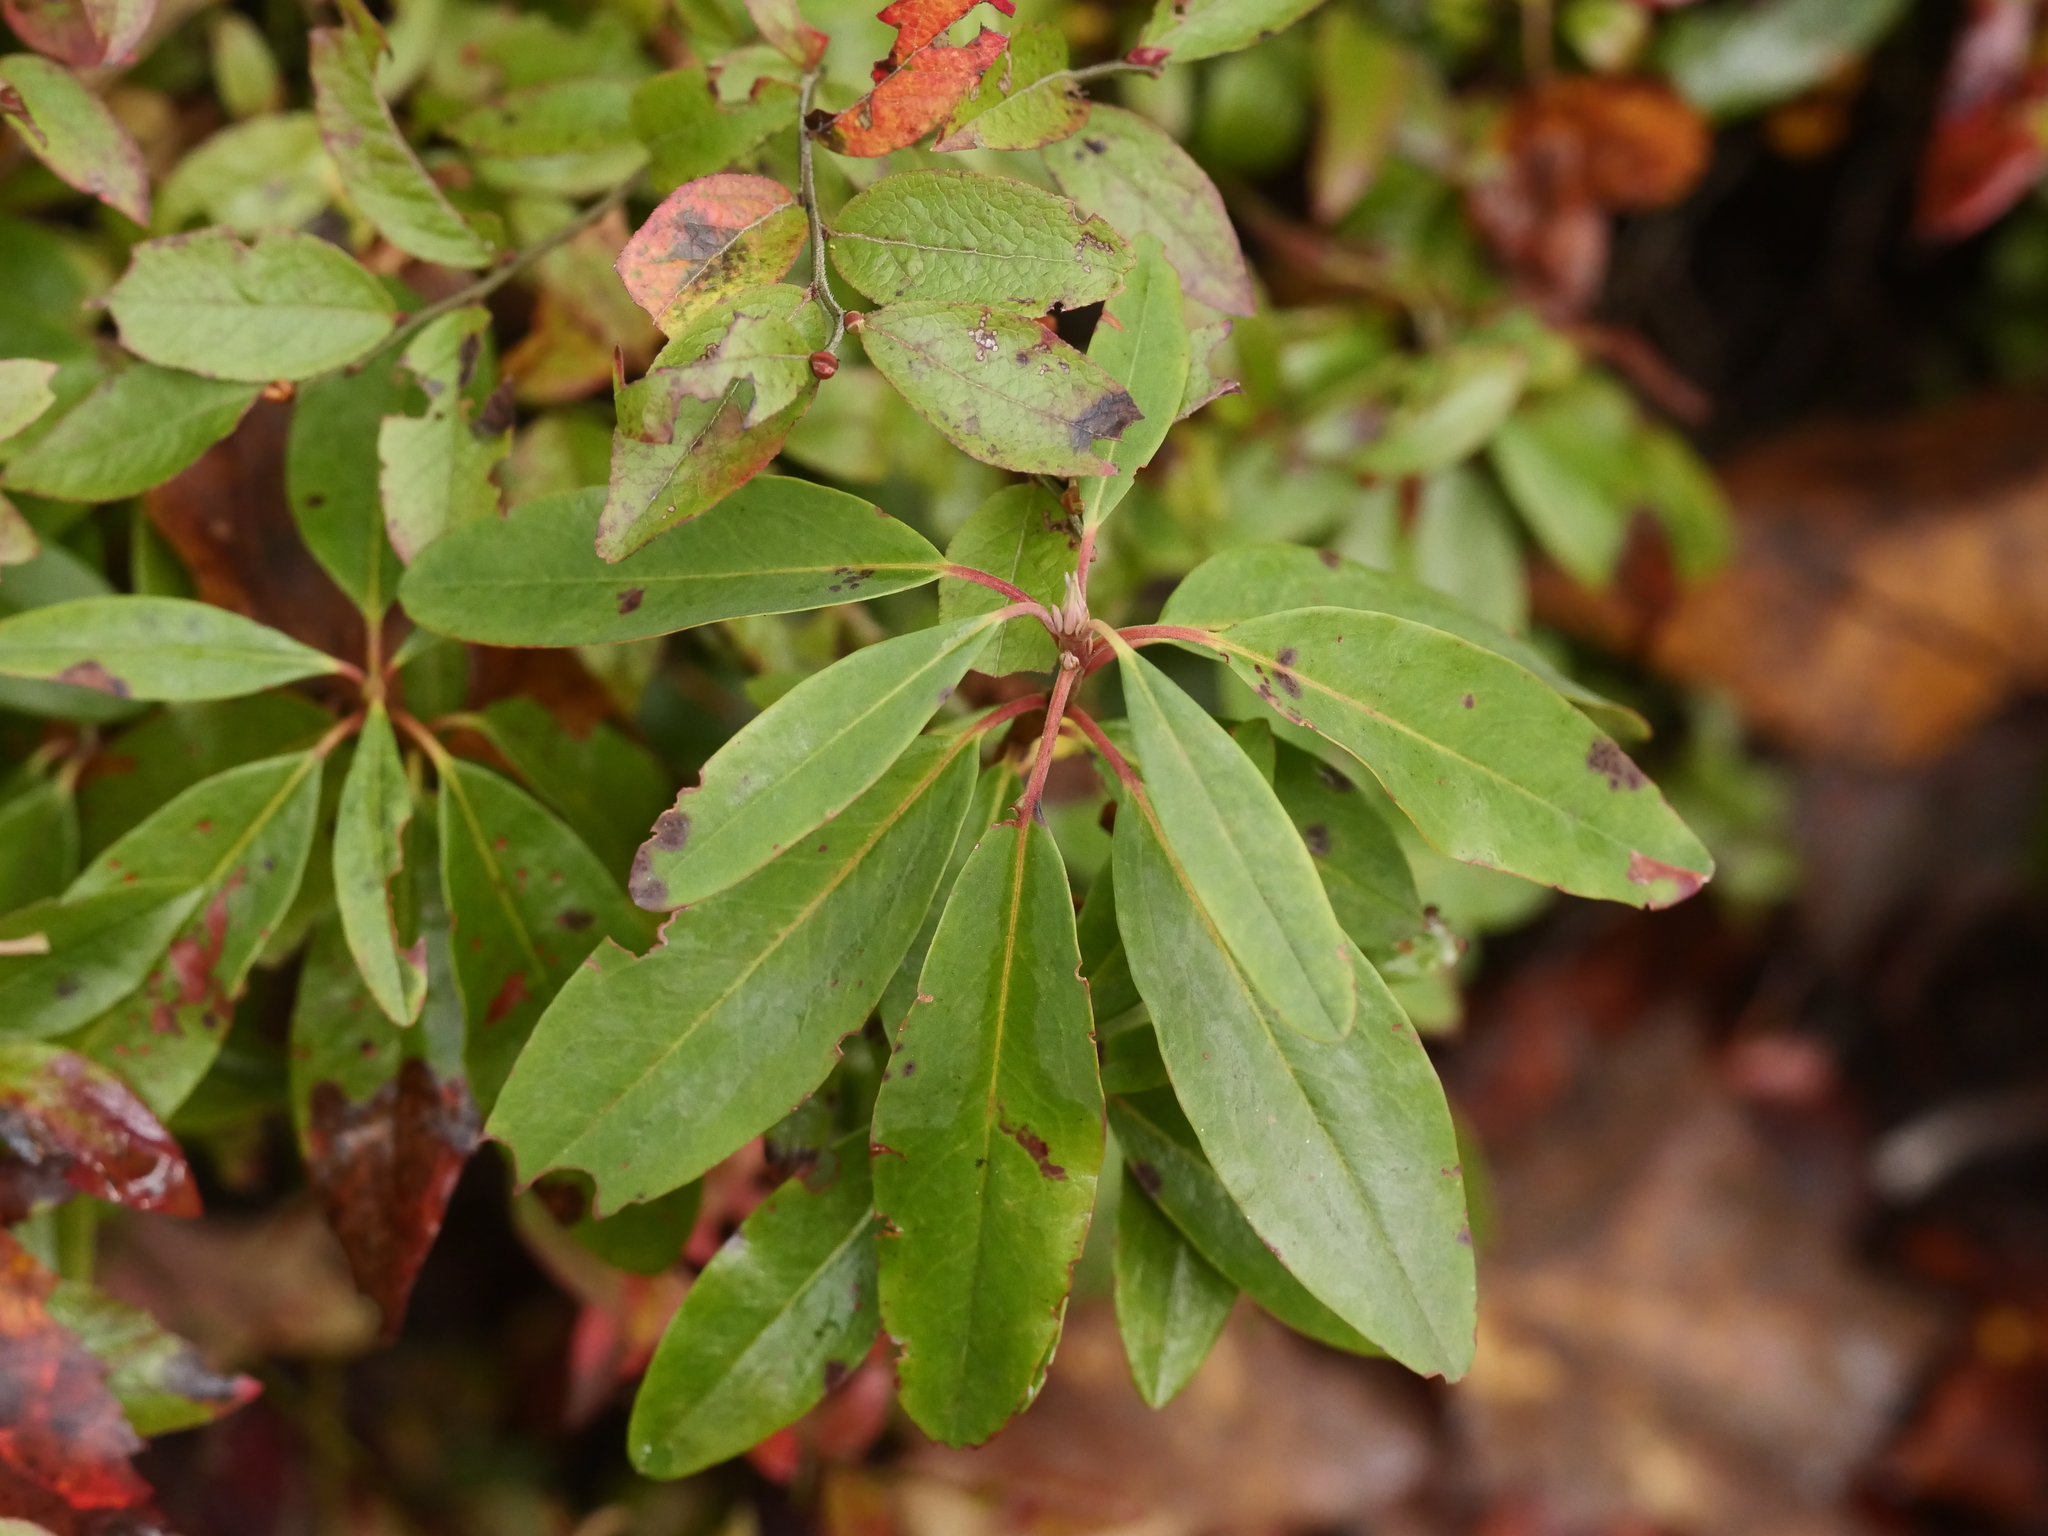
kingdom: Plantae
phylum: Tracheophyta
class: Magnoliopsida
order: Ericales
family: Ericaceae
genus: Kalmia
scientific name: Kalmia angustifolia
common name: Sheep-laurel
